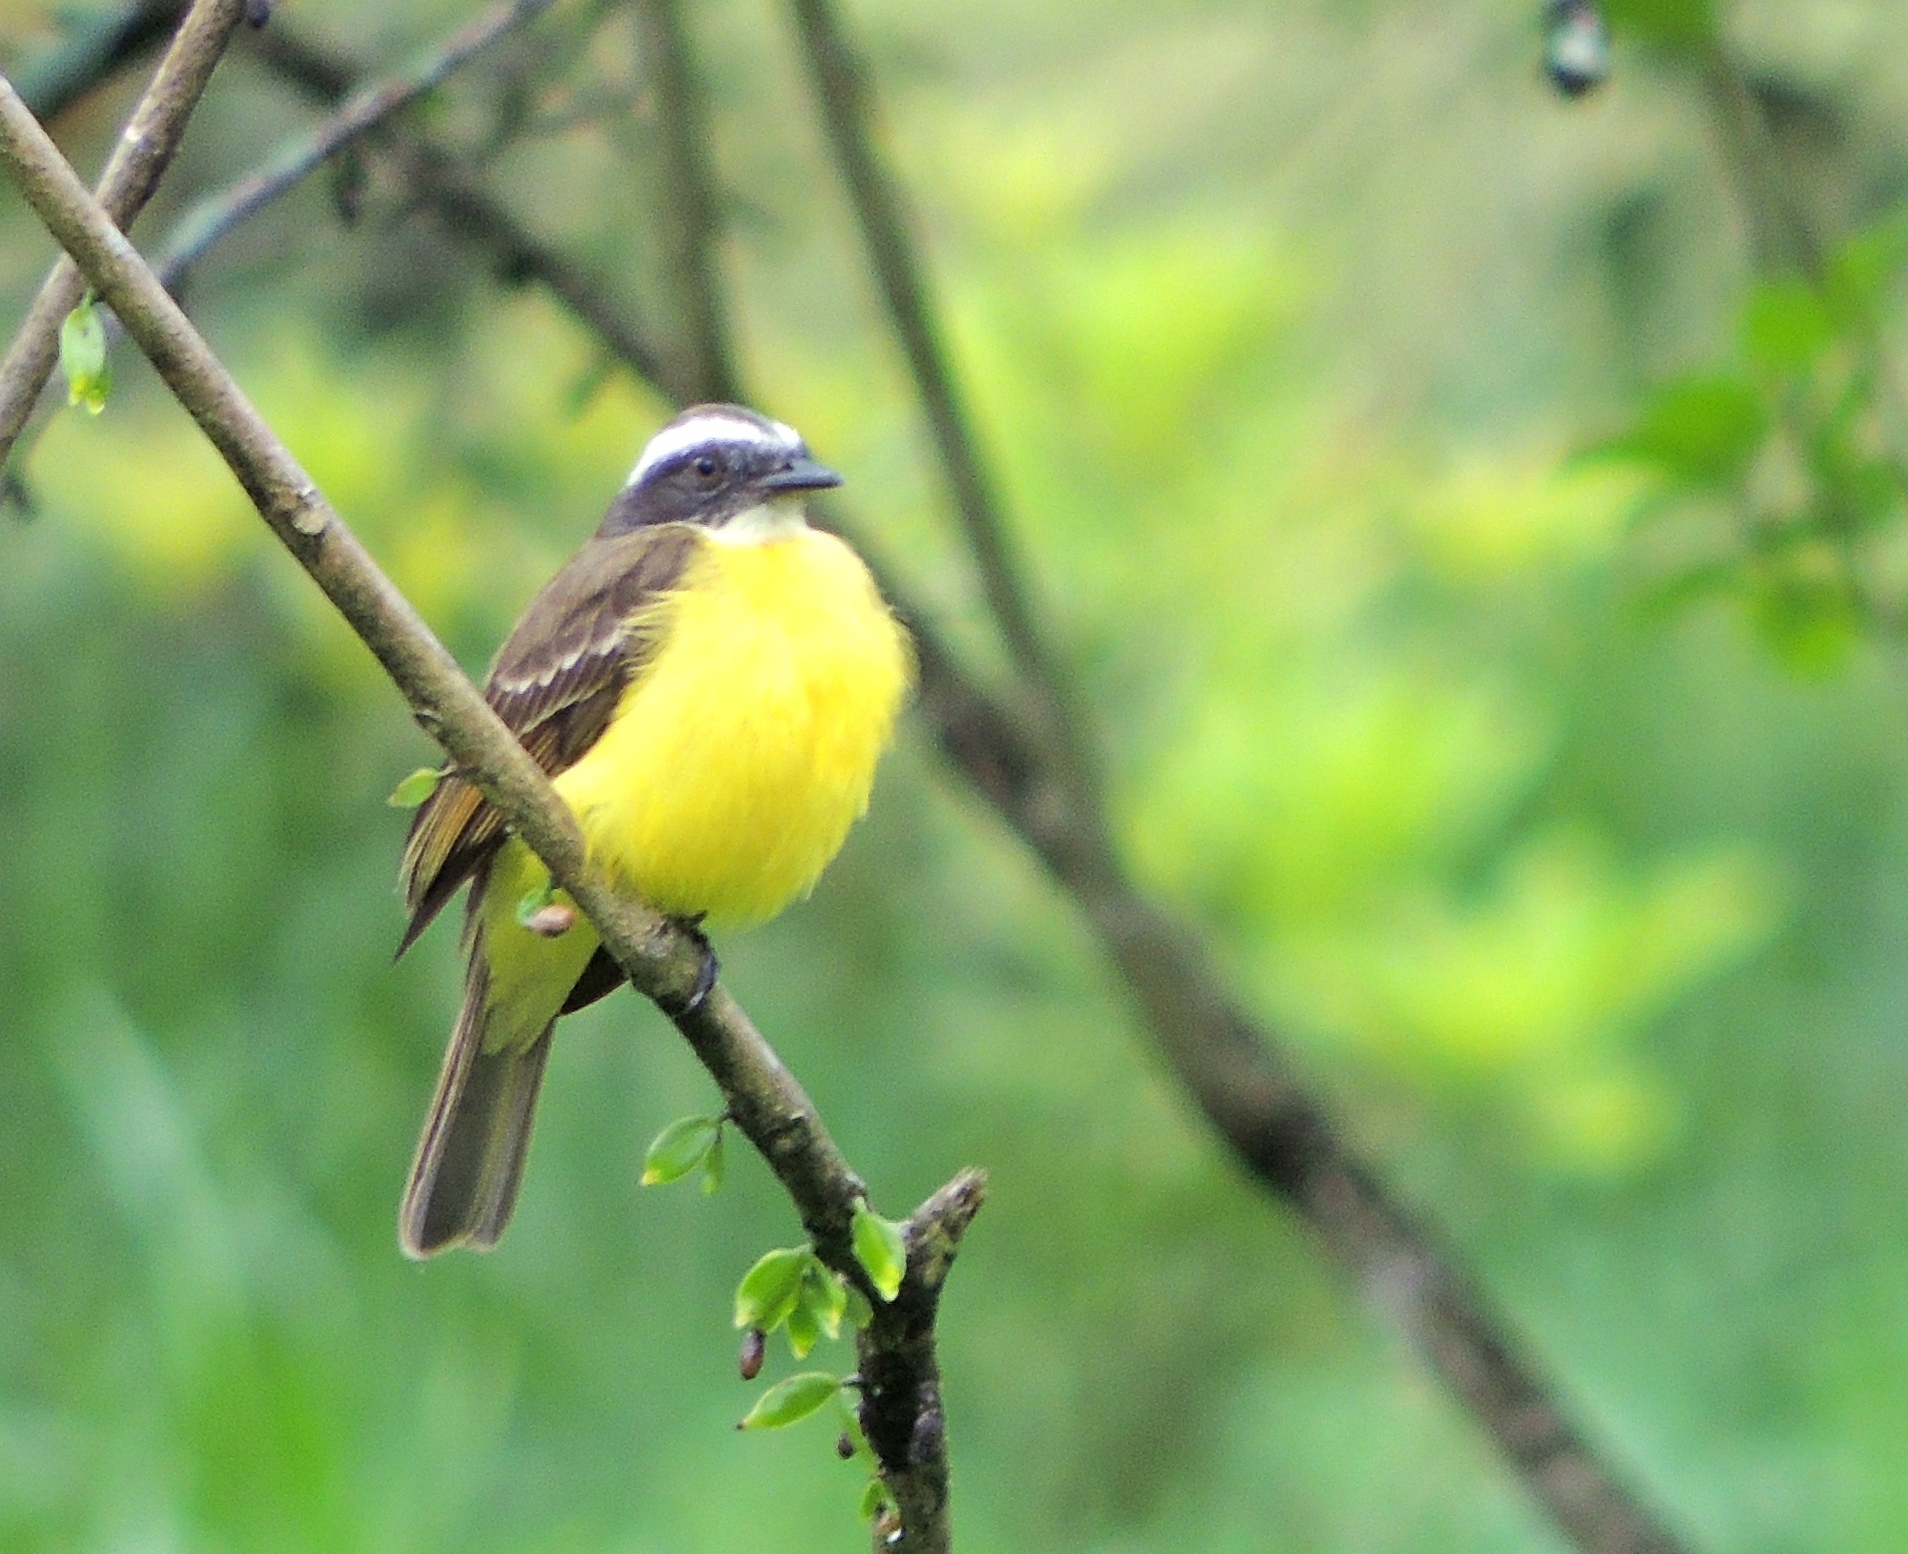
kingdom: Animalia
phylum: Chordata
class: Aves
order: Passeriformes
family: Tyrannidae
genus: Myiozetetes
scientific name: Myiozetetes similis
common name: Social flycatcher
